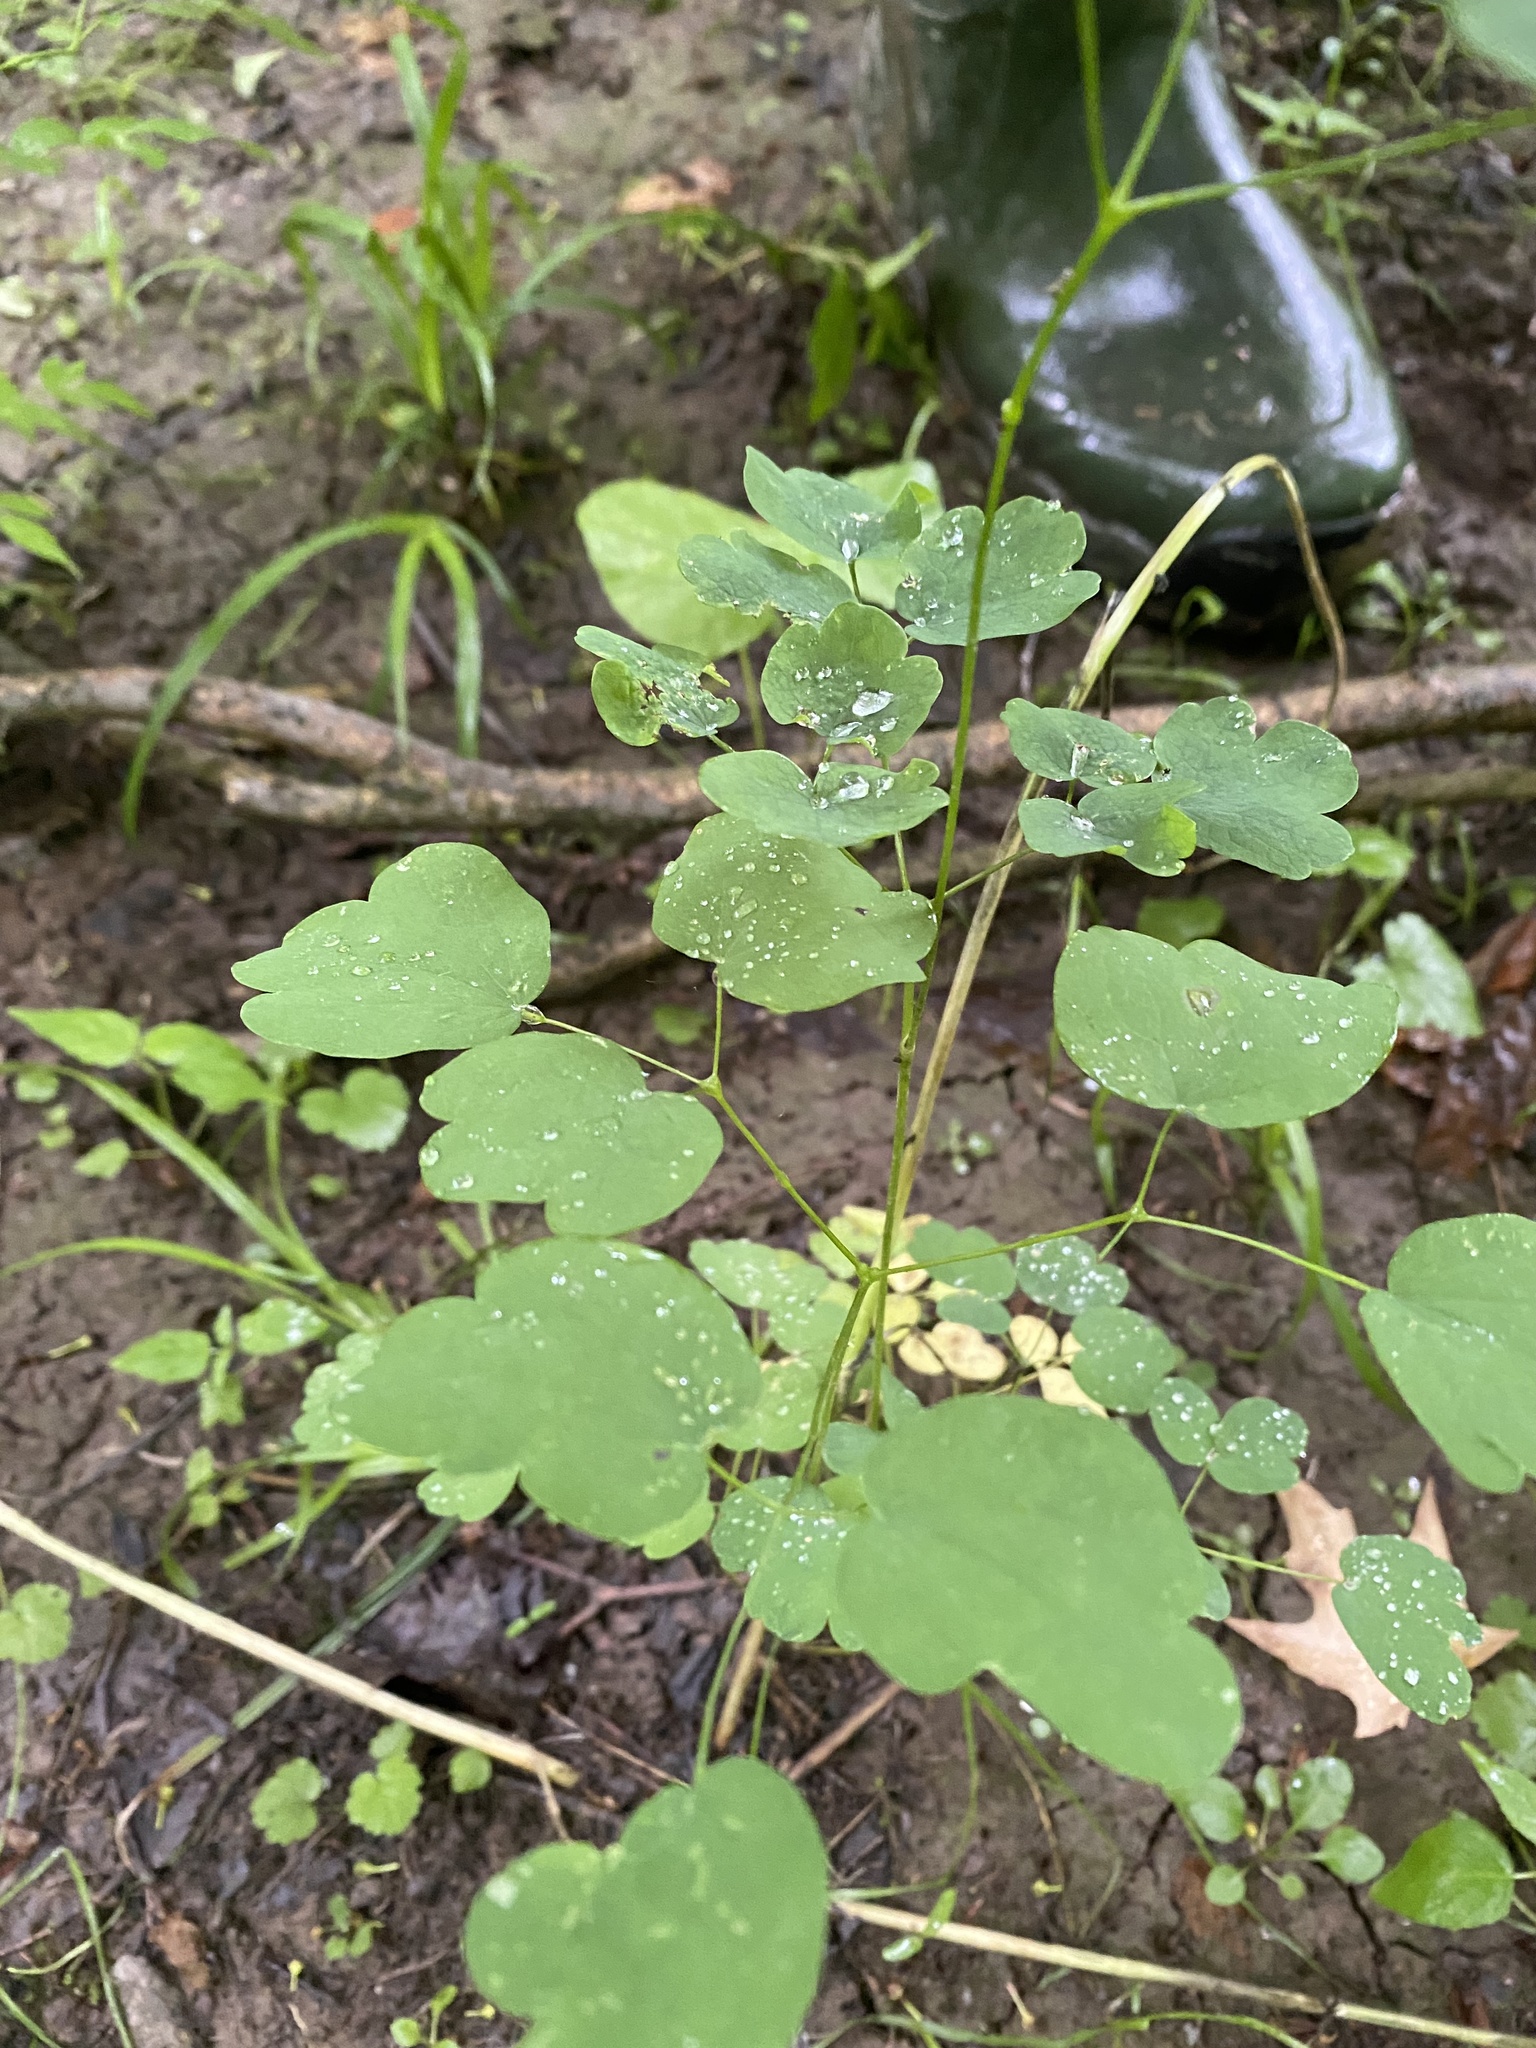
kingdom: Plantae
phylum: Tracheophyta
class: Magnoliopsida
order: Ranunculales
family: Ranunculaceae
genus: Thalictrum
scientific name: Thalictrum dioicum
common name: Early meadow-rue
